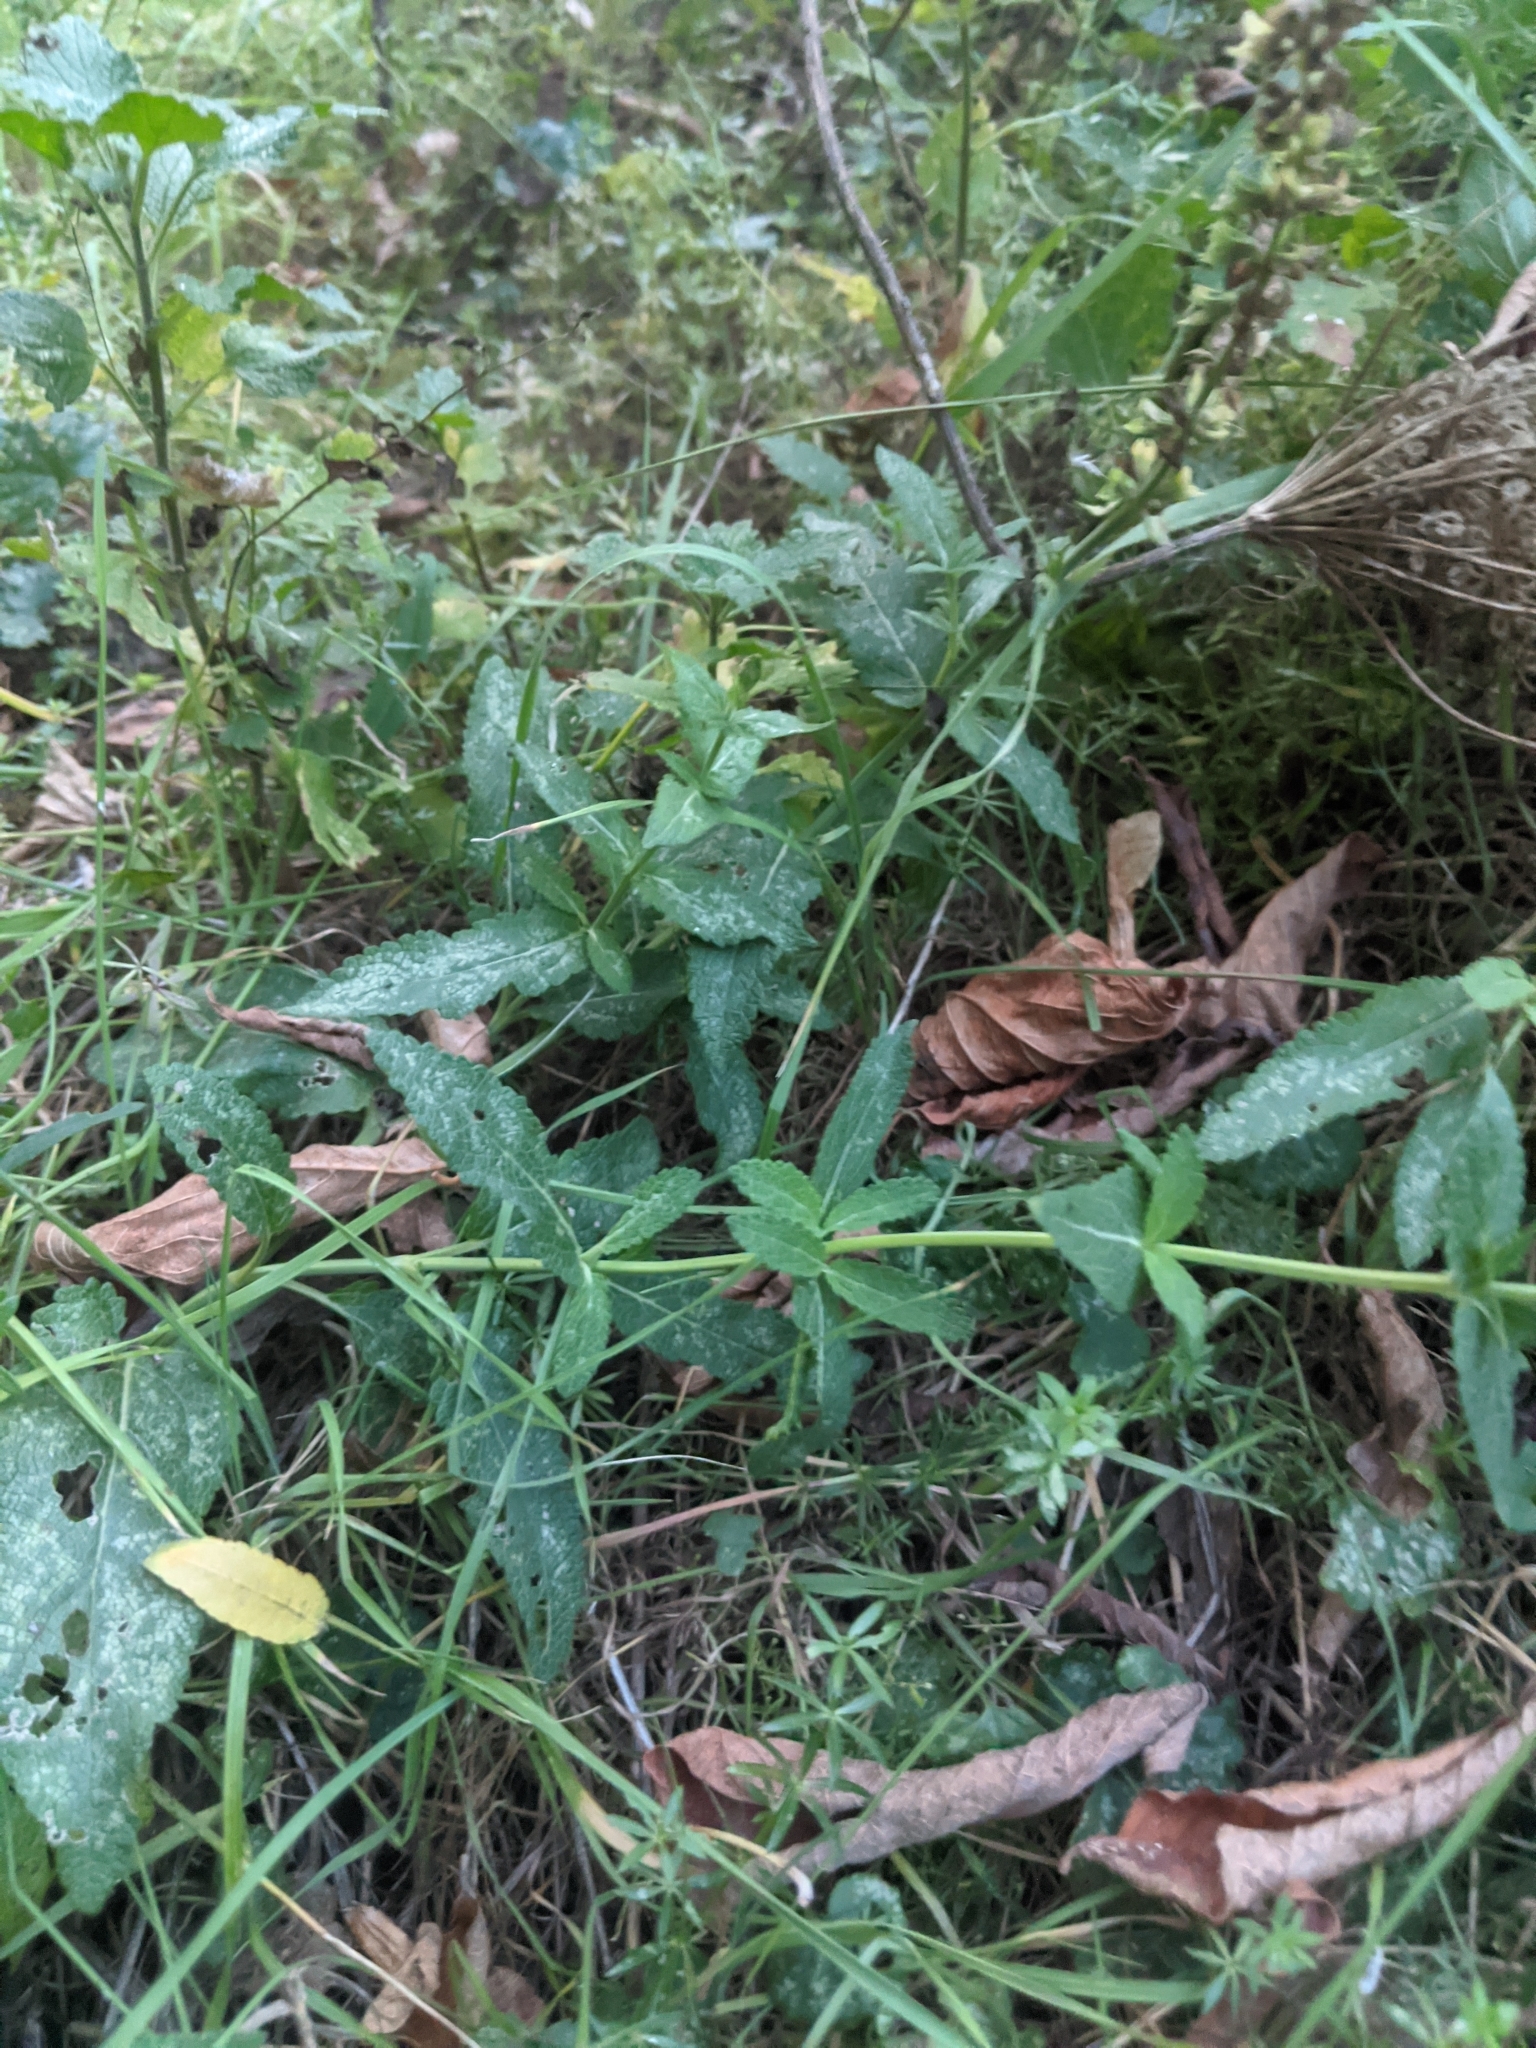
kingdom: Plantae
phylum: Tracheophyta
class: Magnoliopsida
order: Lamiales
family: Lamiaceae
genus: Salvia
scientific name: Salvia nemorosa
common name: Balkan clary
